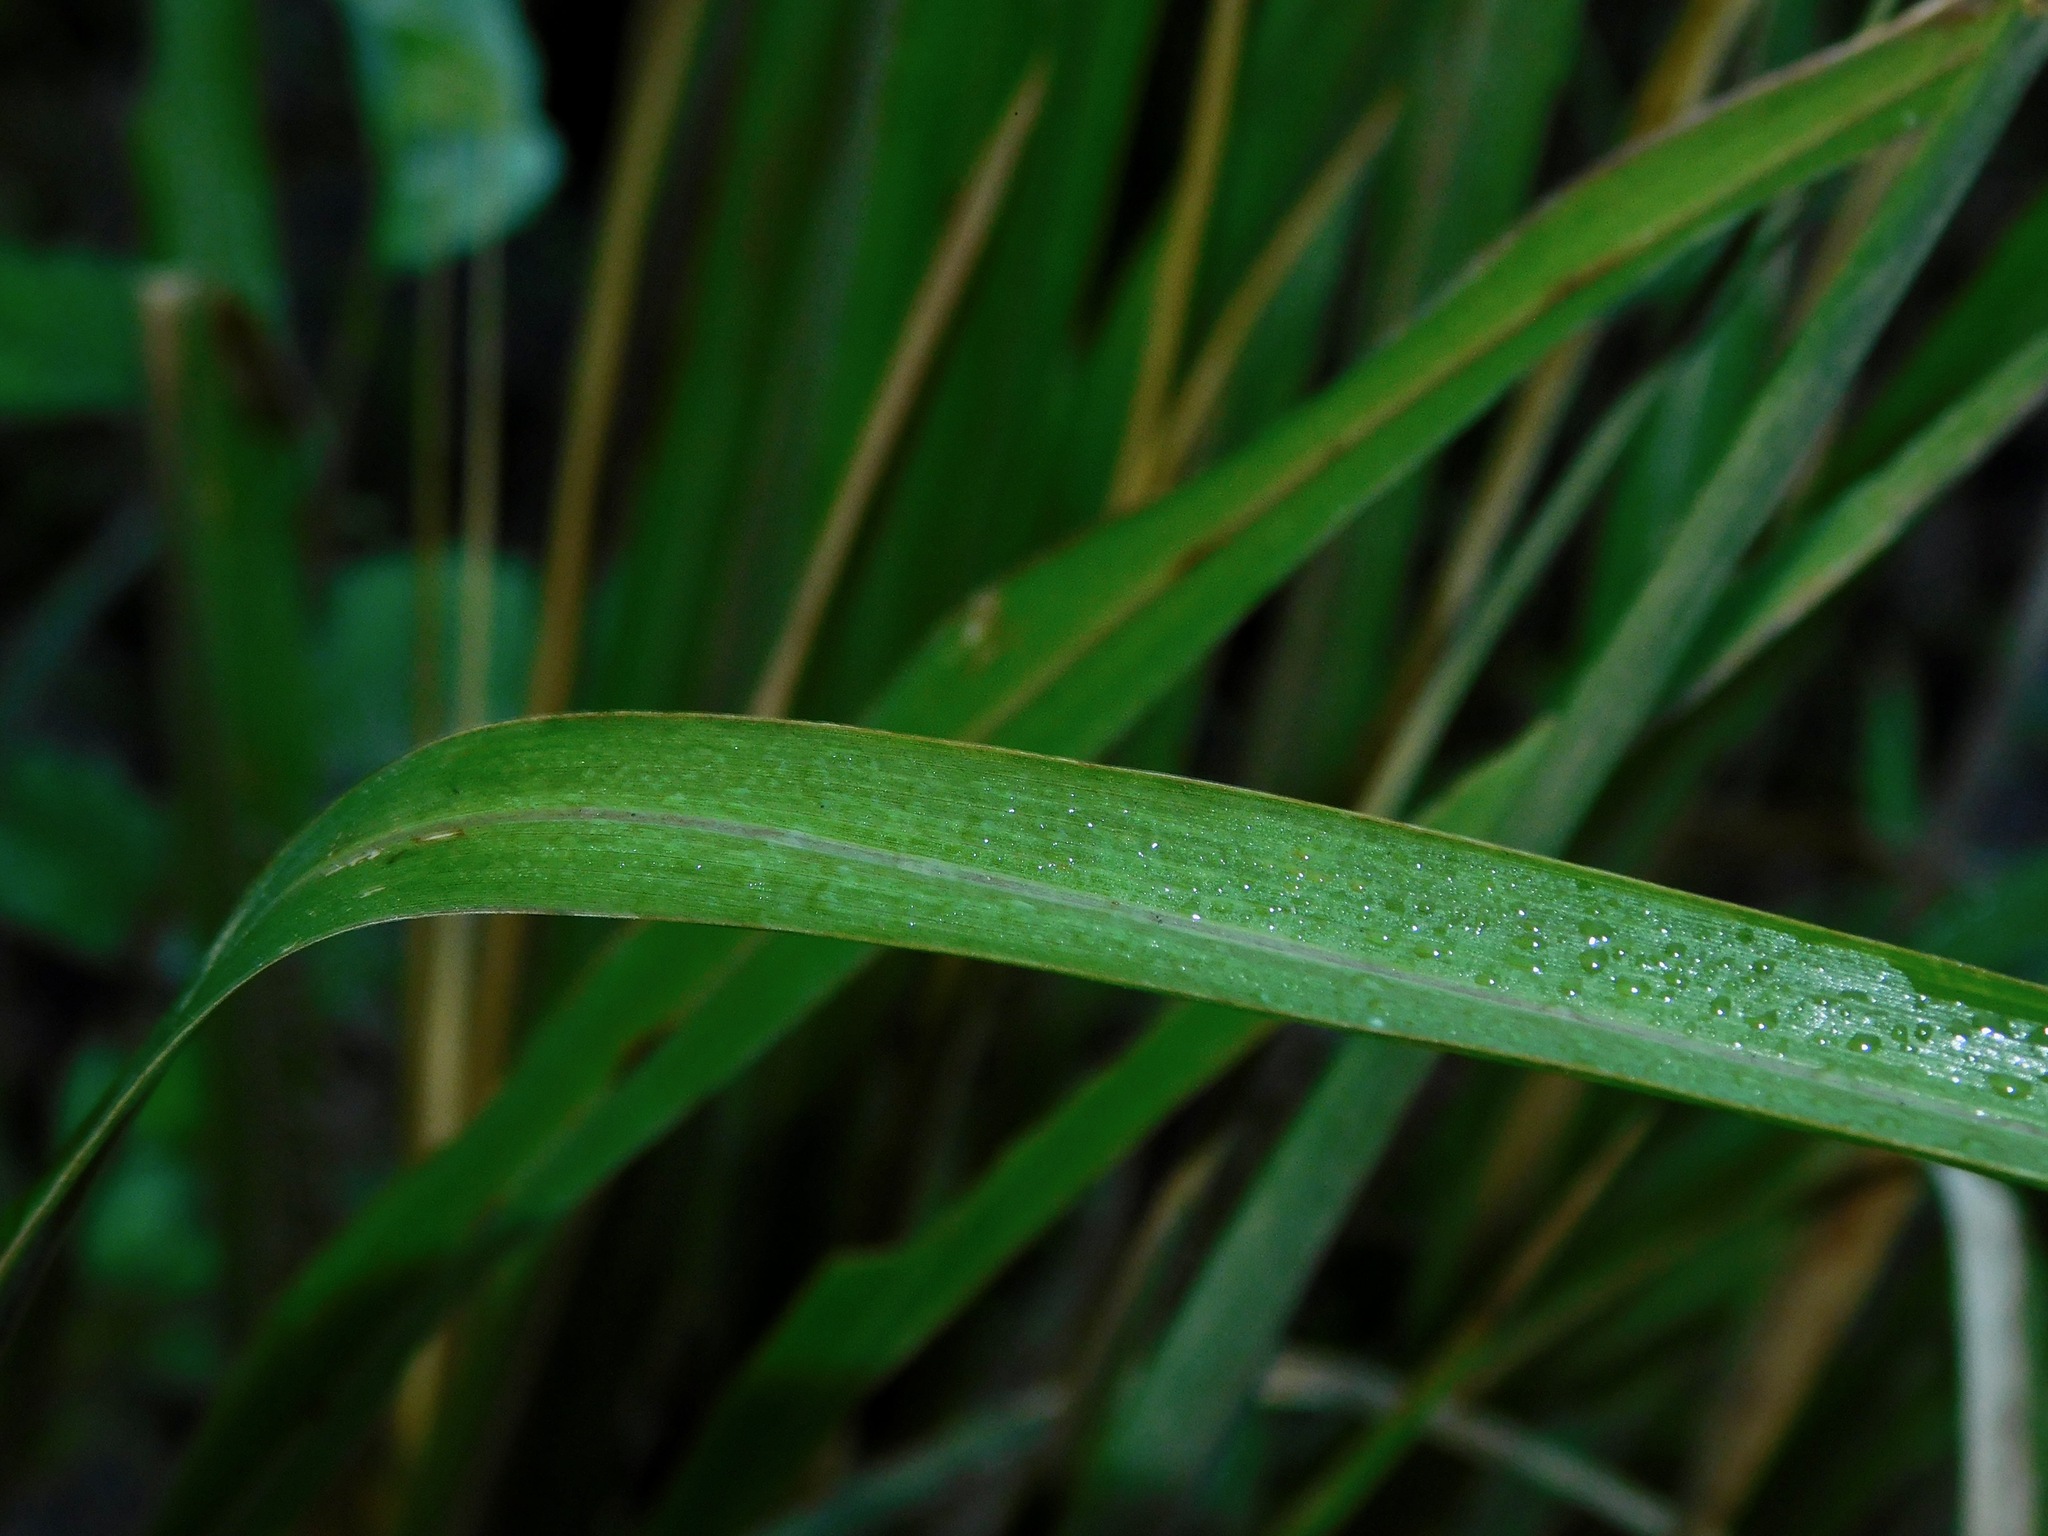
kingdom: Plantae
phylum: Tracheophyta
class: Liliopsida
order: Poales
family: Poaceae
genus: Coleataenia
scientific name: Coleataenia rigidula
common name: Redtop panicgrass
